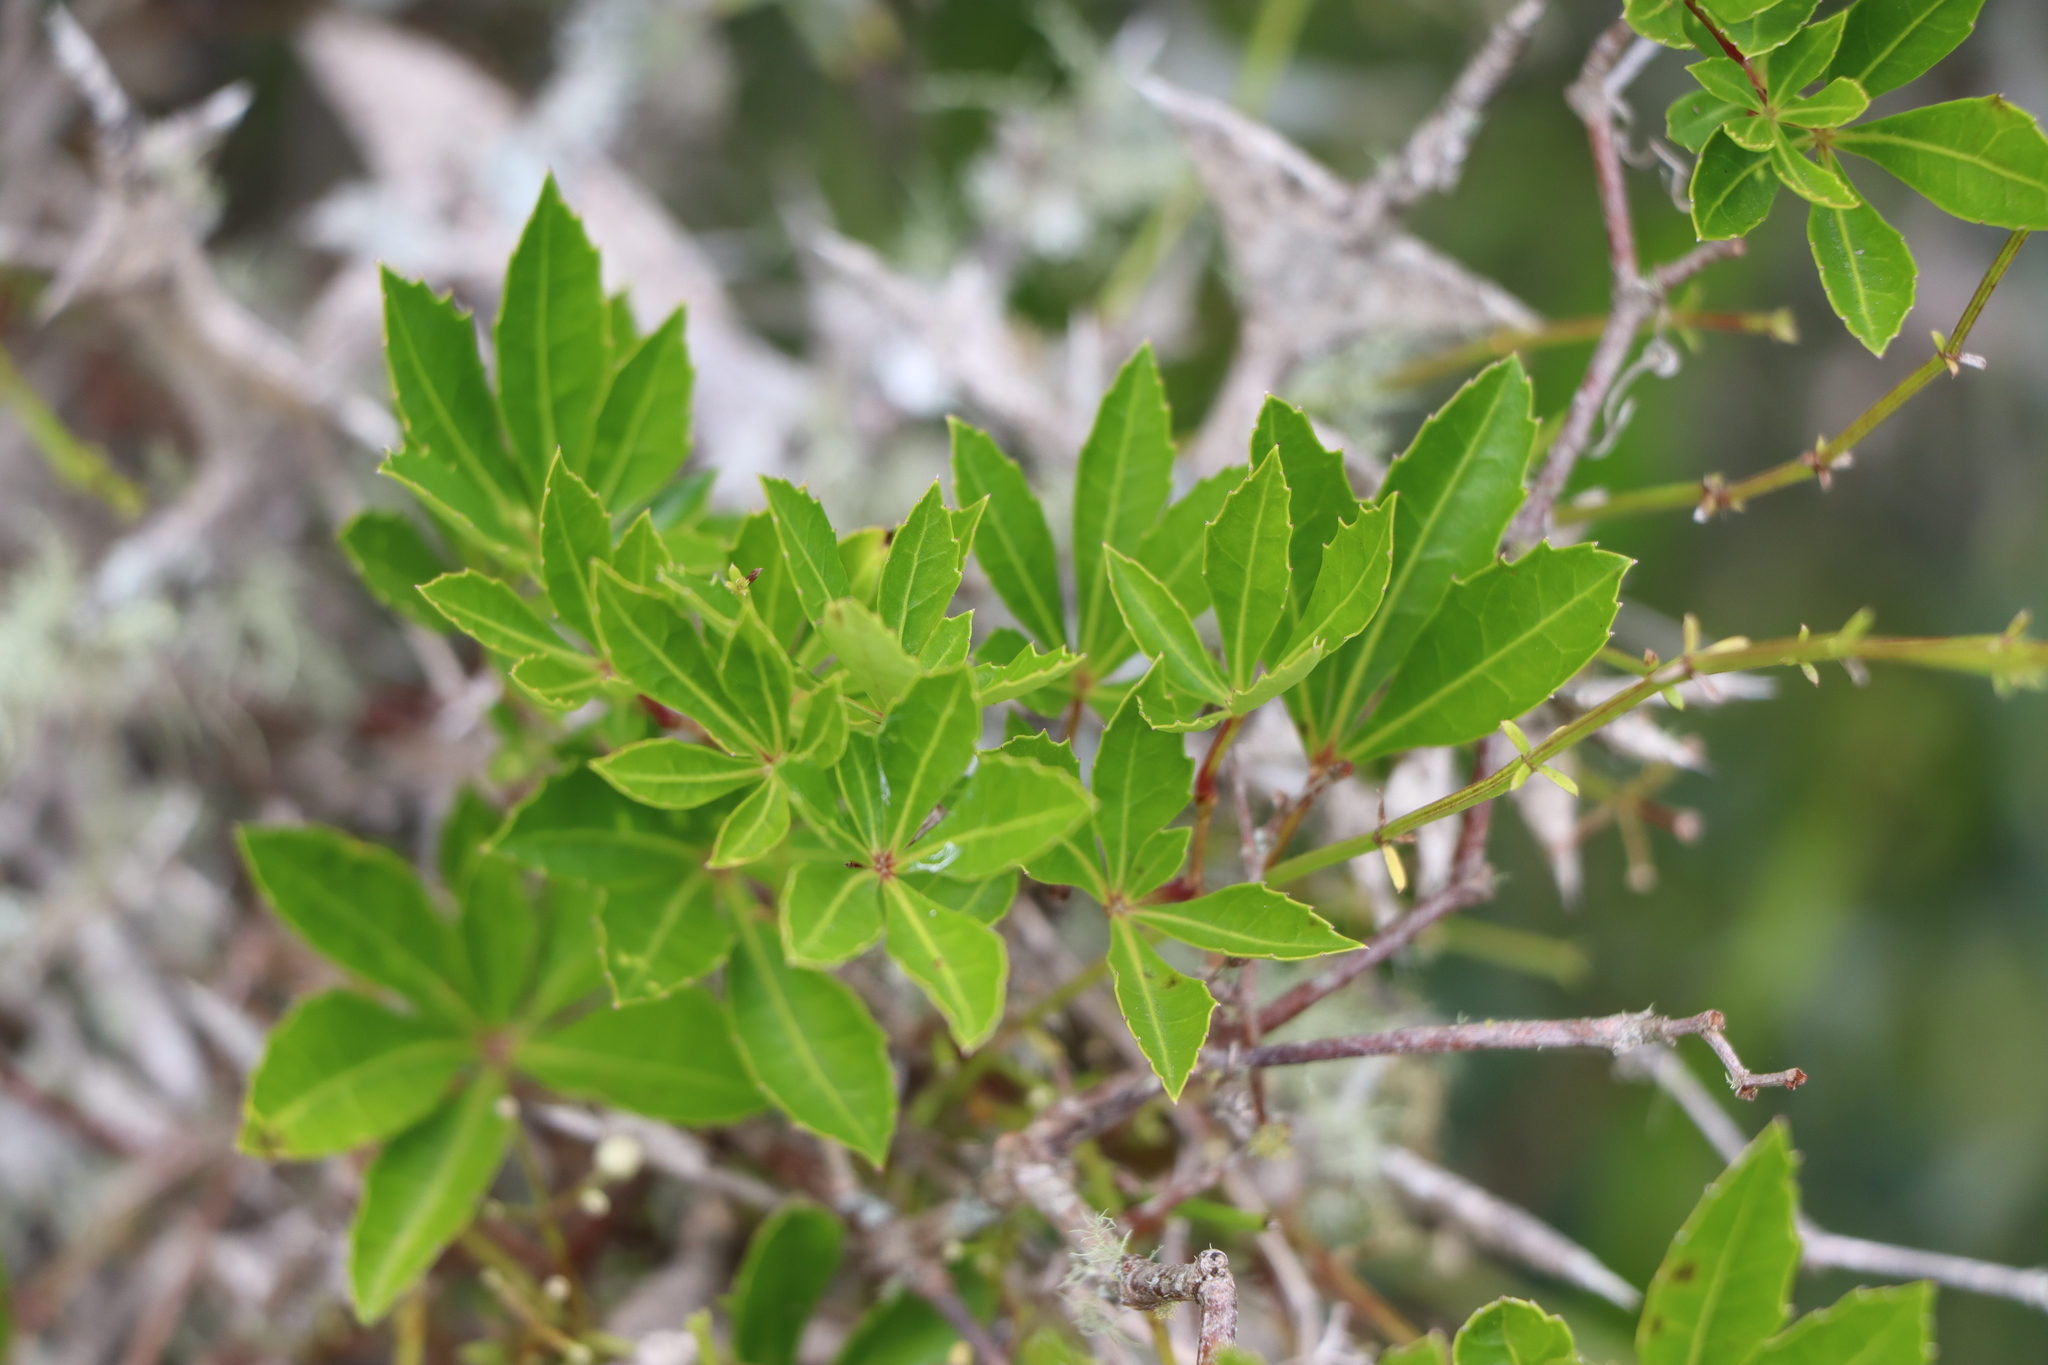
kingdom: Plantae
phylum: Tracheophyta
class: Magnoliopsida
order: Vitales
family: Vitaceae
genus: Clematicissus
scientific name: Clematicissus striata
